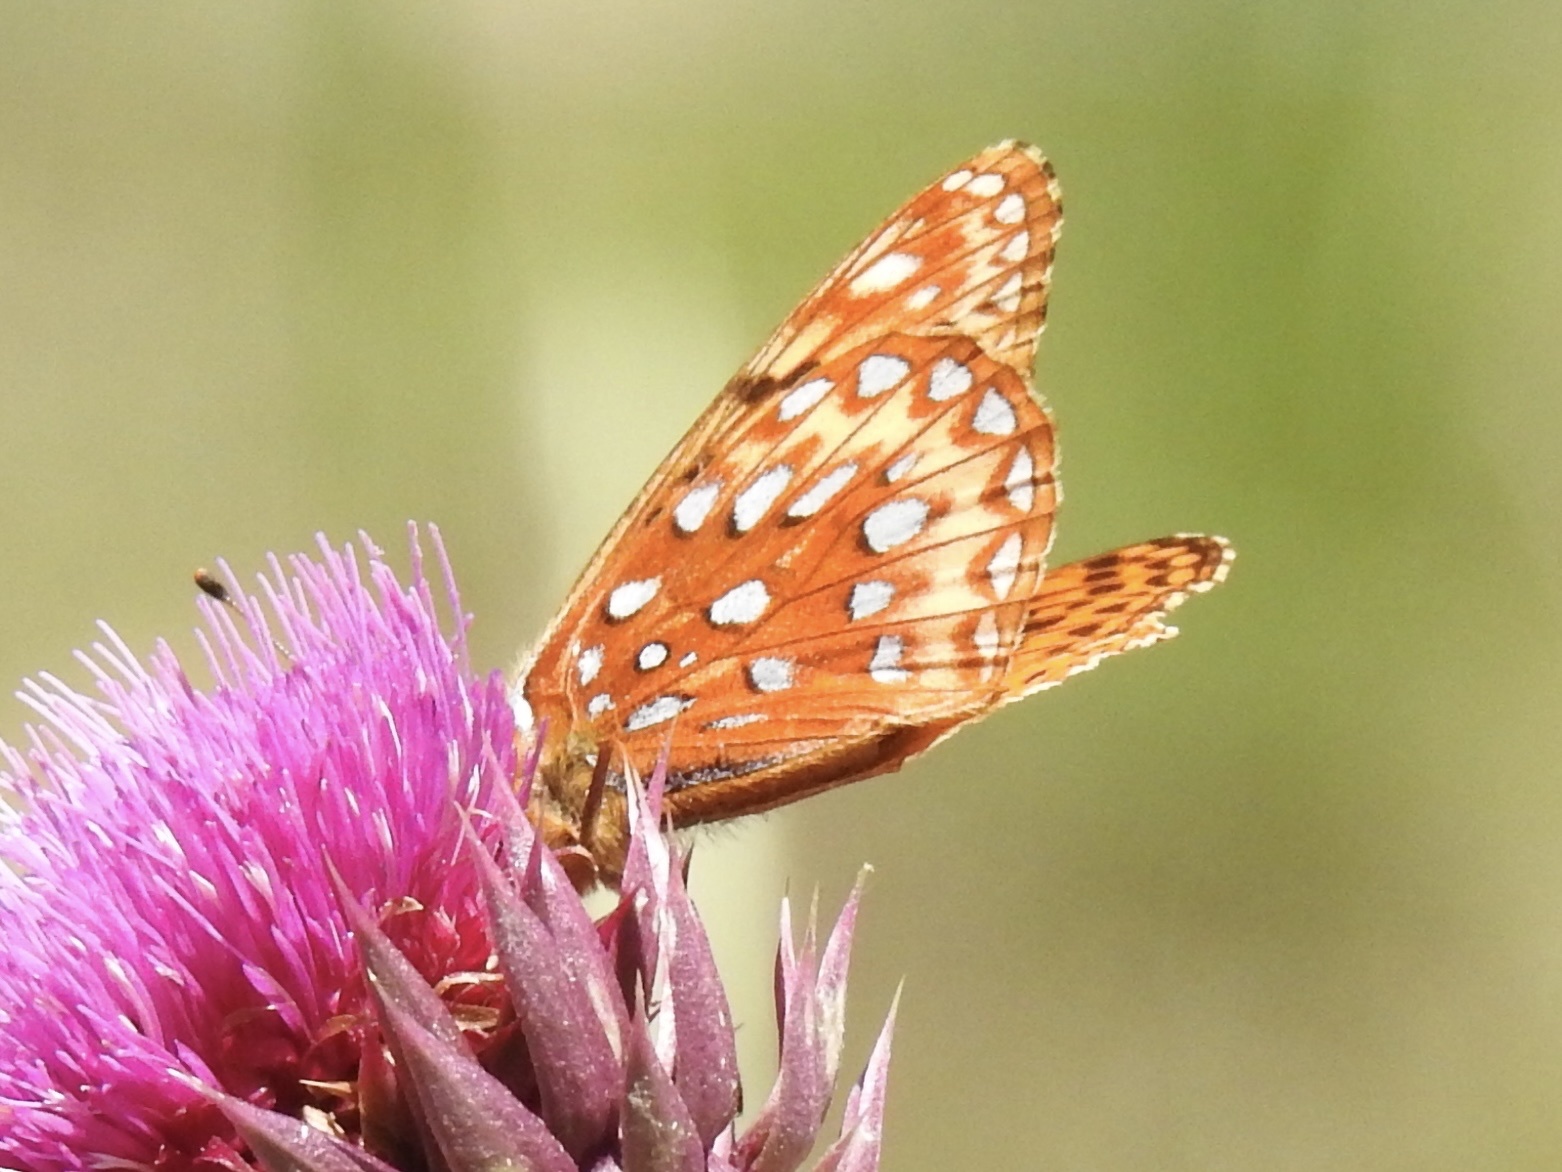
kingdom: Animalia
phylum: Arthropoda
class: Insecta
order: Lepidoptera
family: Nymphalidae
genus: Speyeria
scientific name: Speyeria atlantis
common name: Atlantis fritillary
